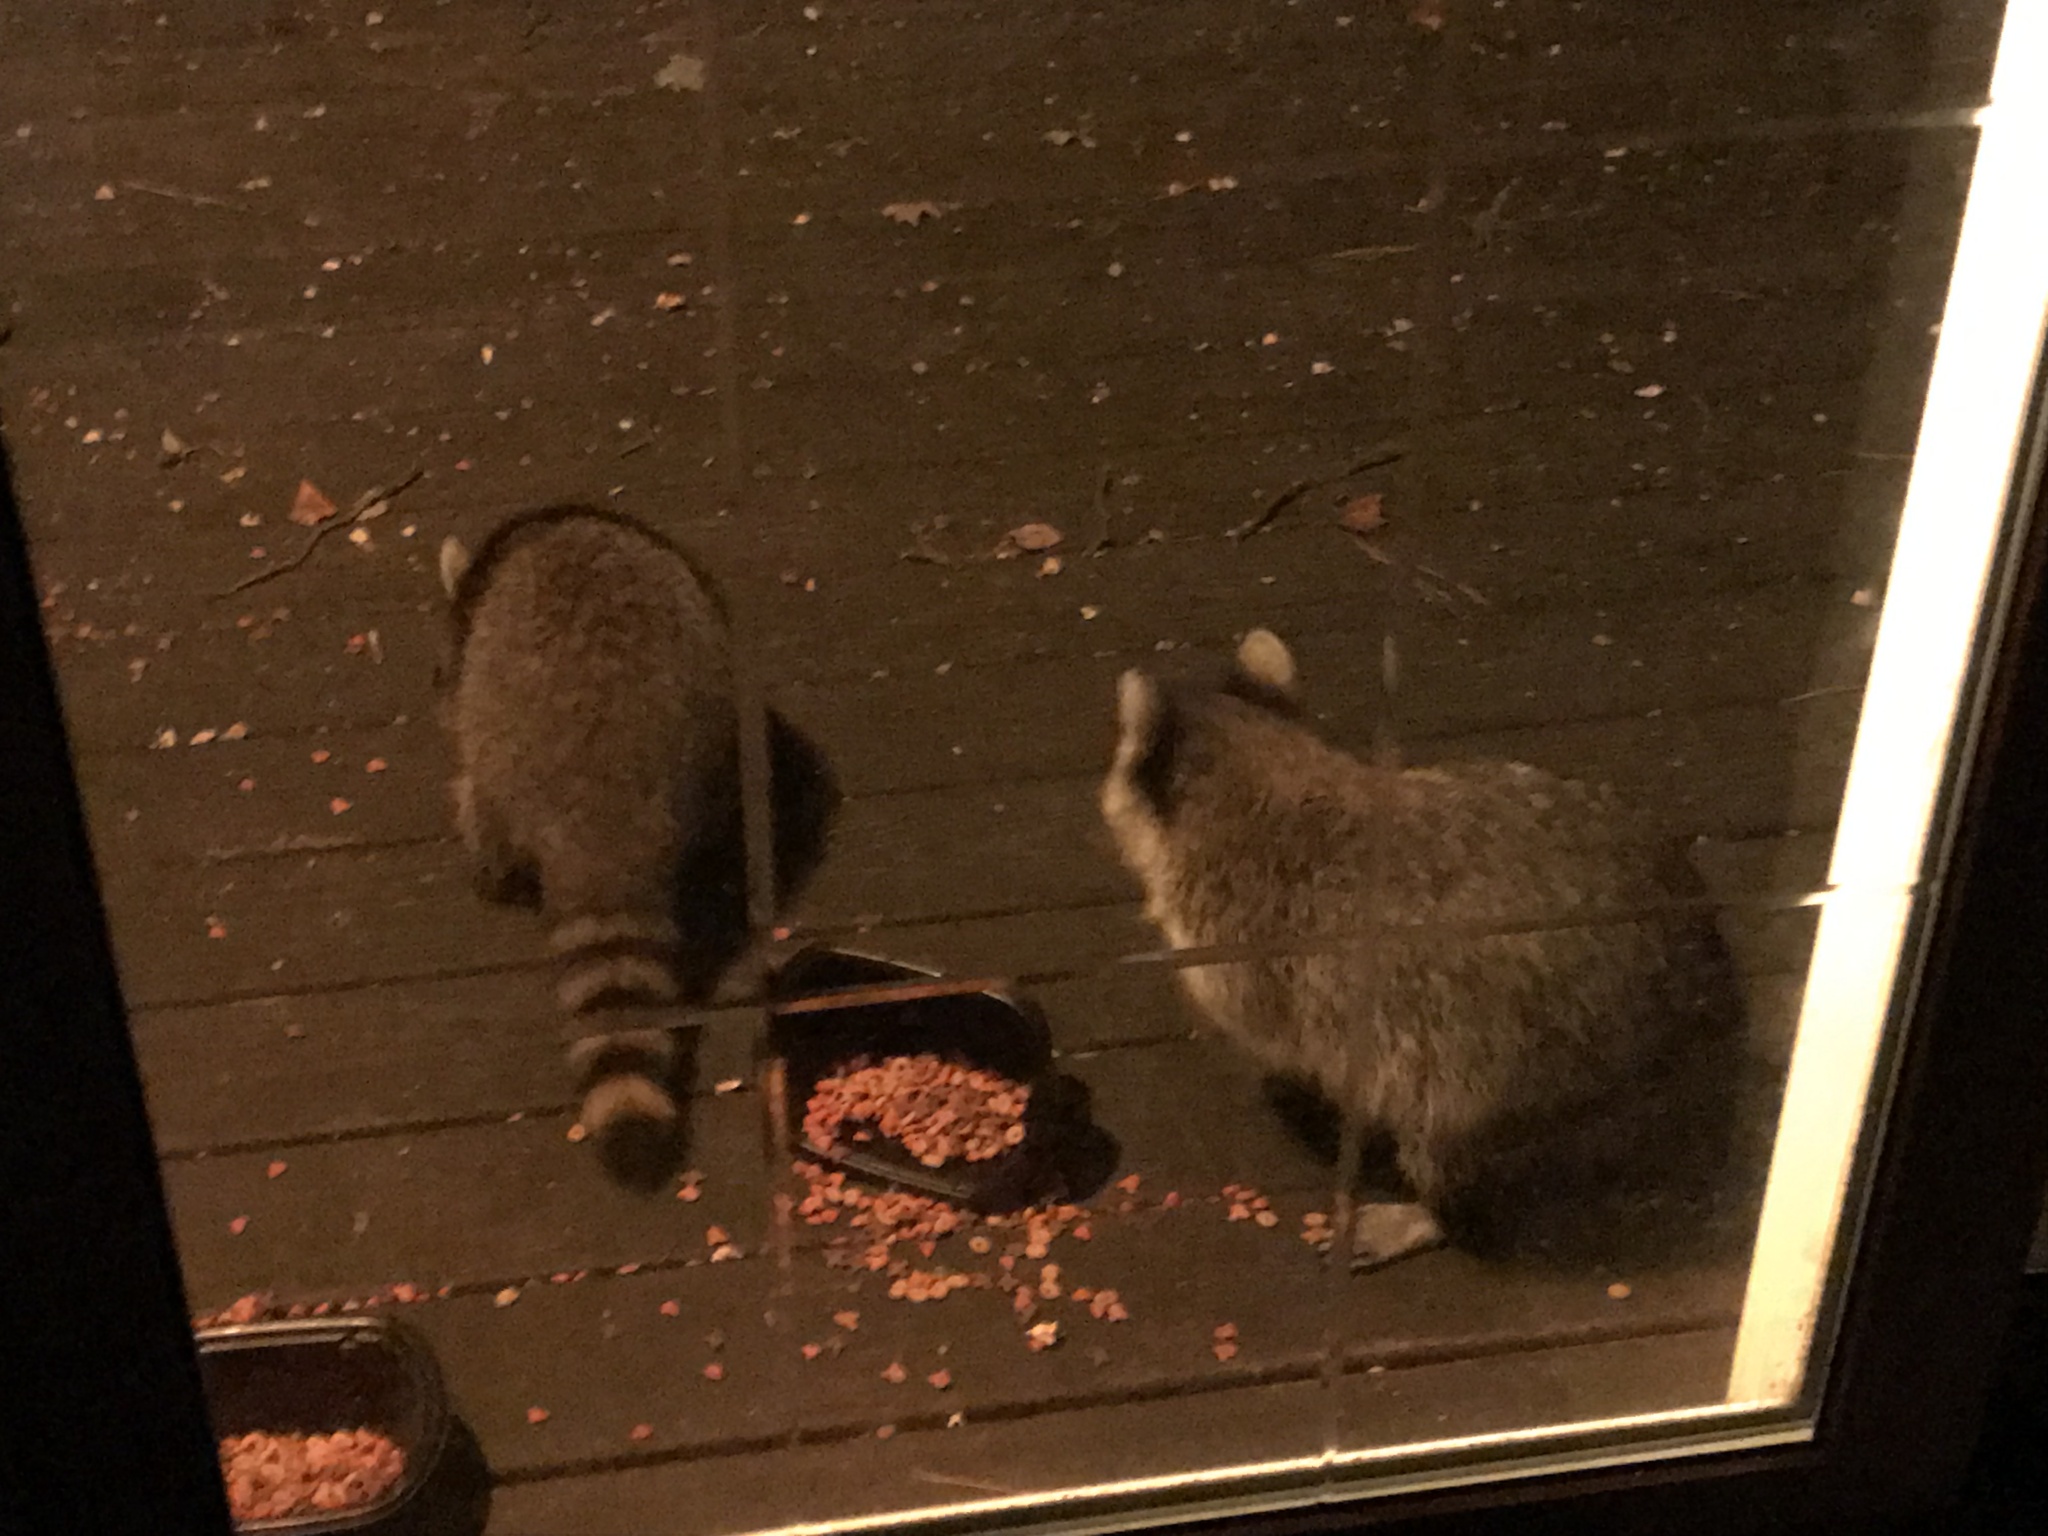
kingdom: Animalia
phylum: Chordata
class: Mammalia
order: Carnivora
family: Procyonidae
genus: Procyon
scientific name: Procyon lotor
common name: Raccoon
